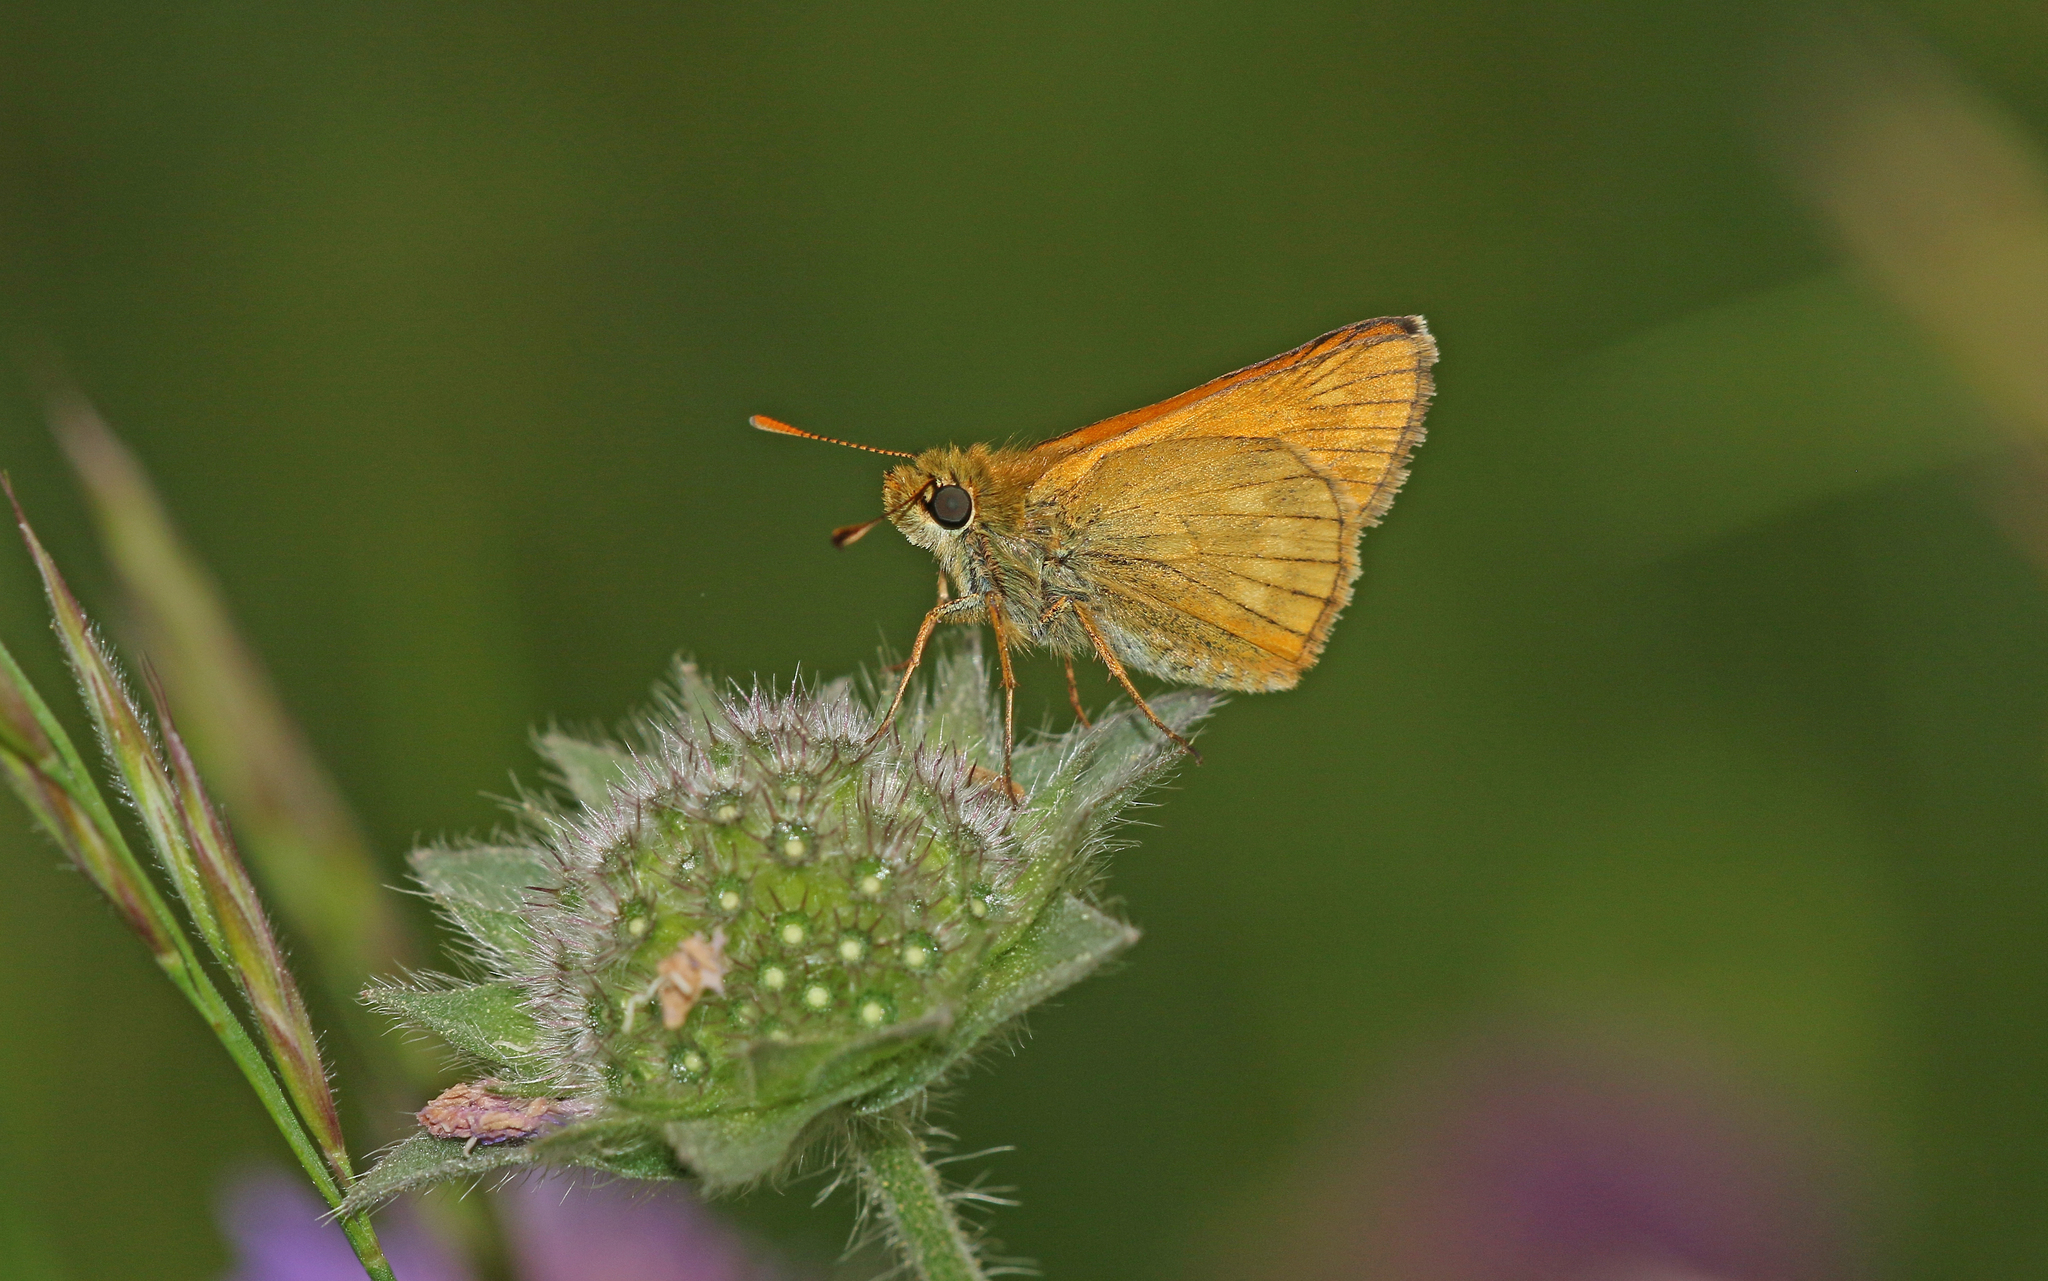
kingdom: Animalia
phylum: Arthropoda
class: Insecta
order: Lepidoptera
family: Hesperiidae
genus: Ochlodes
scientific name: Ochlodes venata
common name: Large skipper
